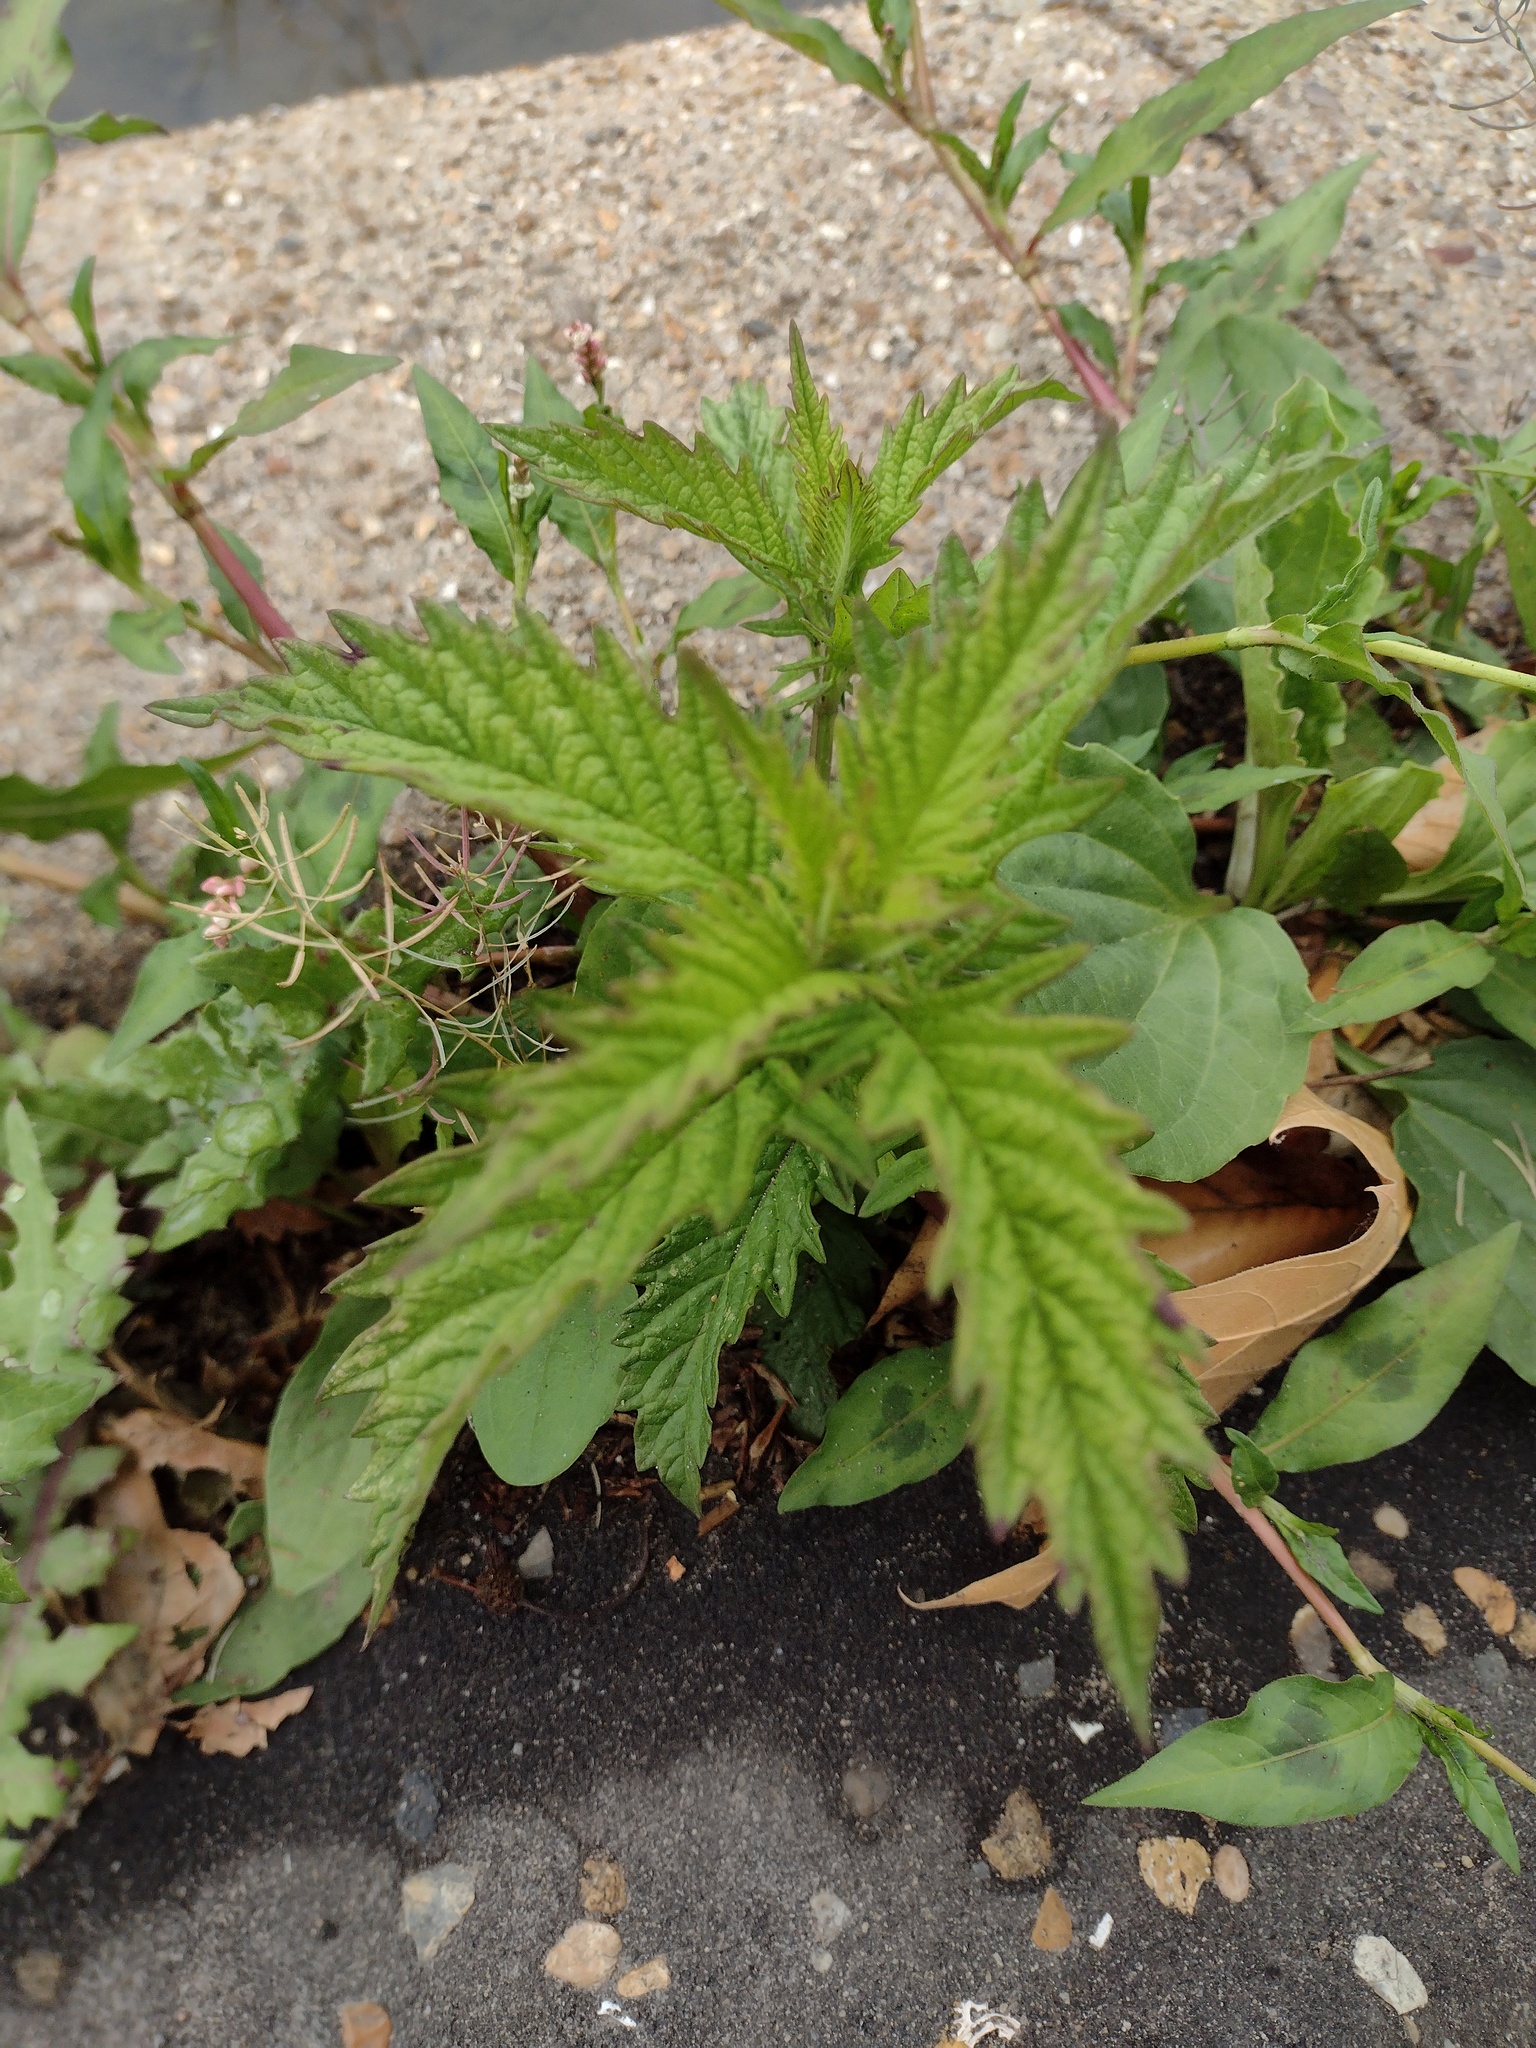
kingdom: Plantae
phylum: Tracheophyta
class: Magnoliopsida
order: Lamiales
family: Lamiaceae
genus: Lycopus
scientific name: Lycopus europaeus
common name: European bugleweed
